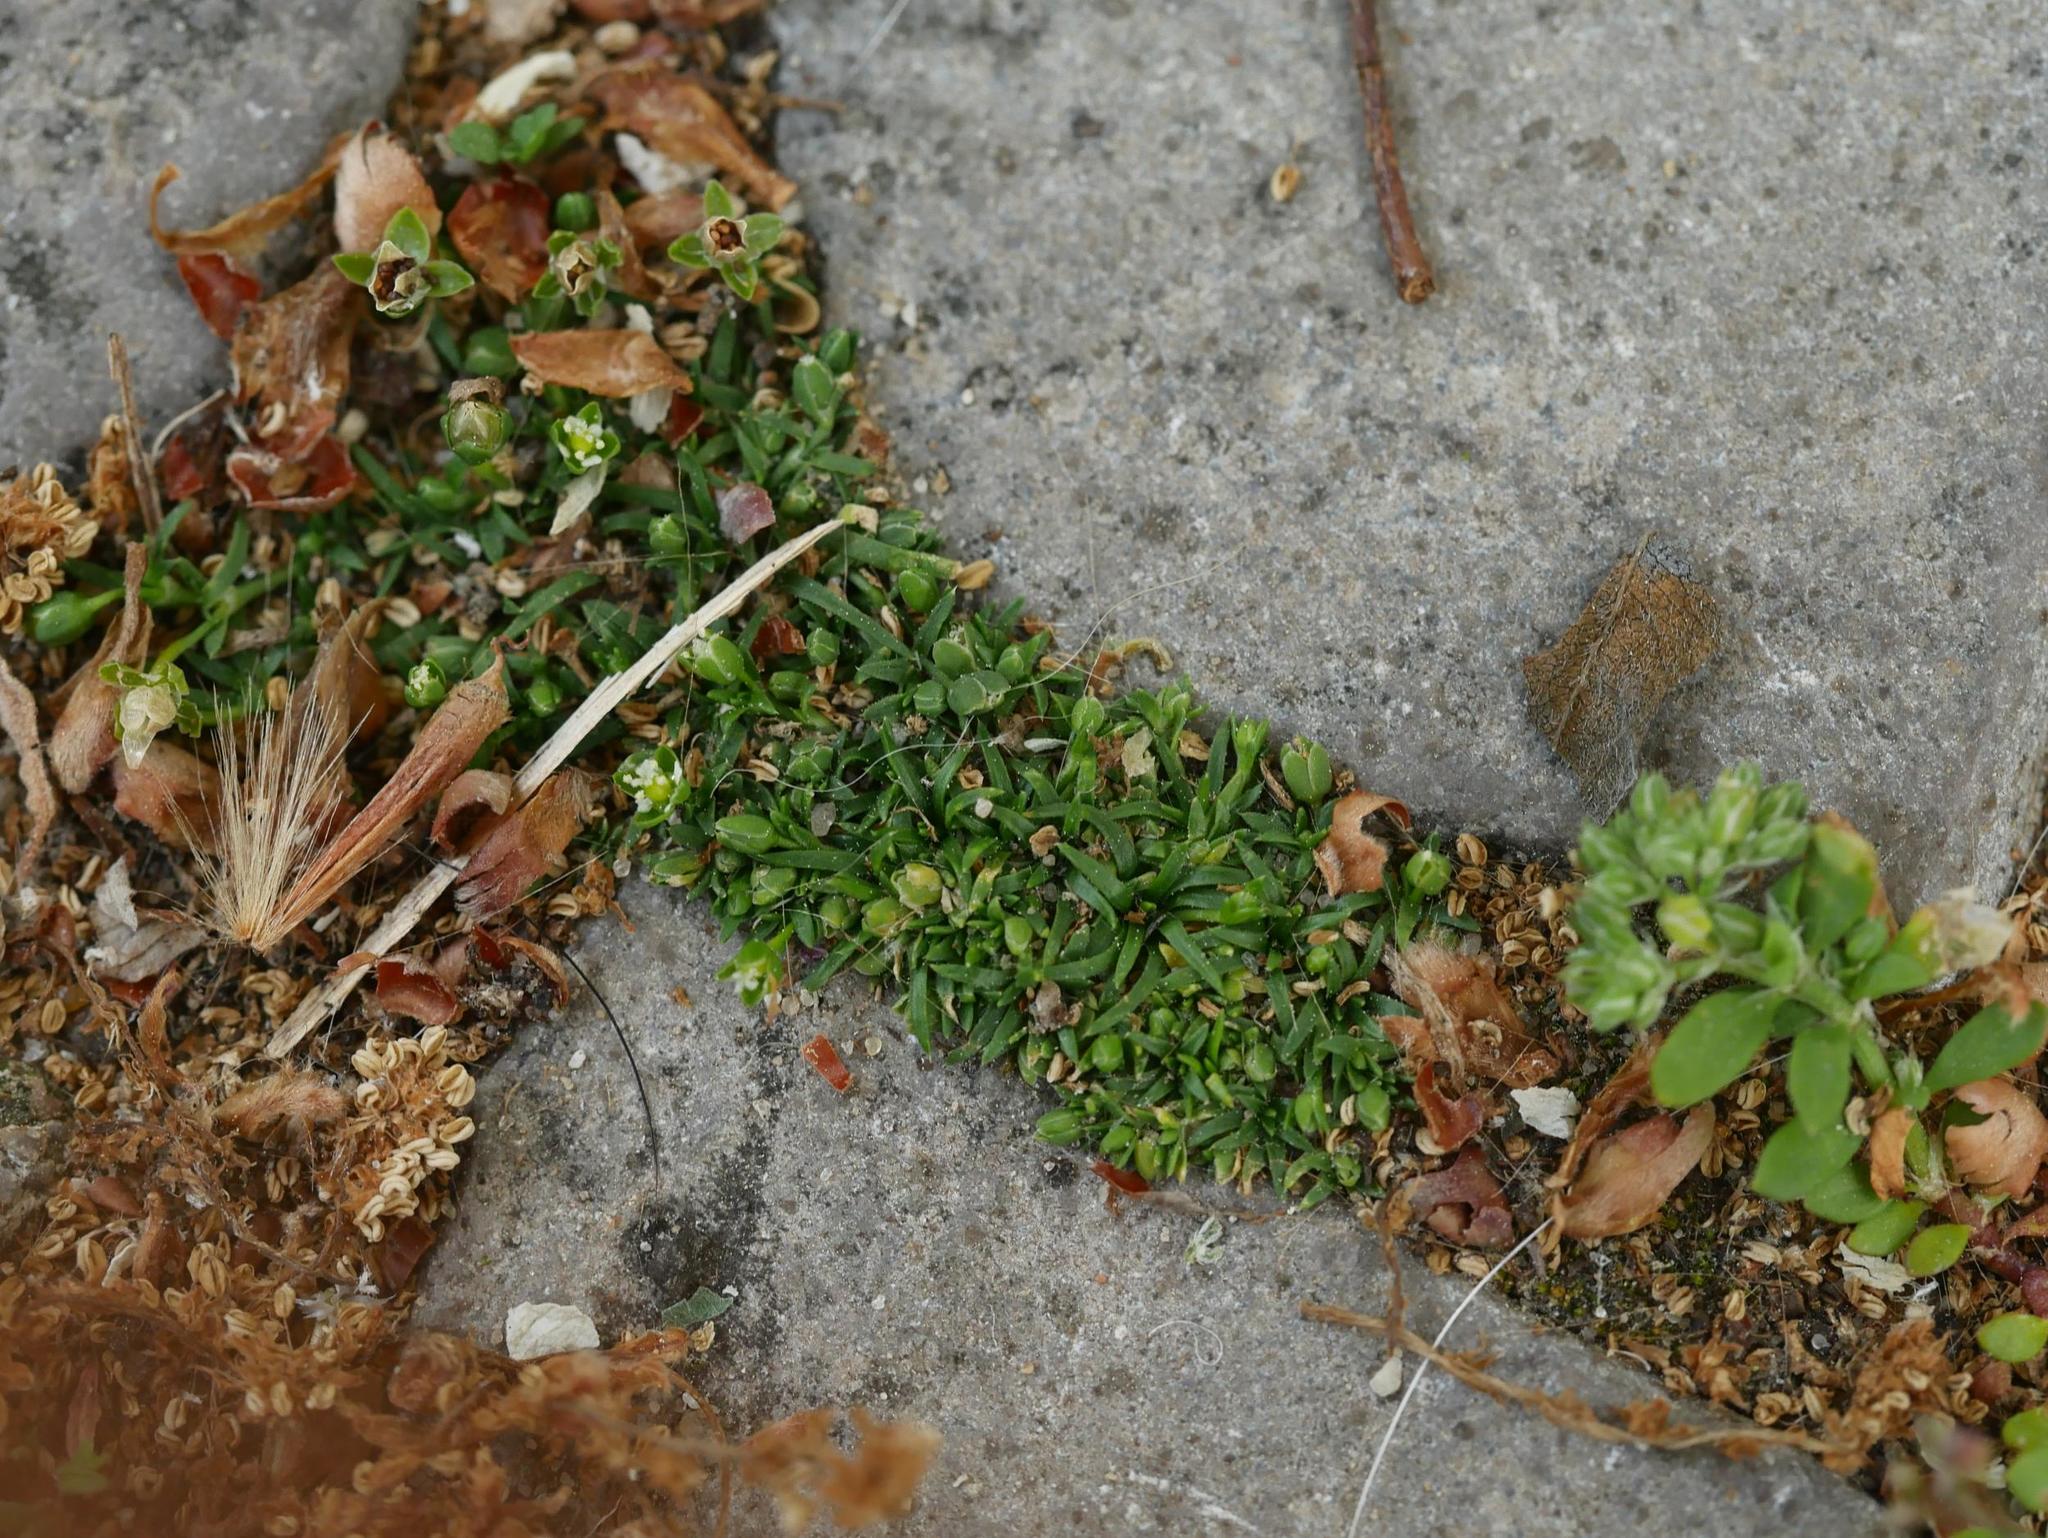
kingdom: Plantae
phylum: Tracheophyta
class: Magnoliopsida
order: Caryophyllales
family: Caryophyllaceae
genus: Sagina
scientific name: Sagina procumbens
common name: Procumbent pearlwort
